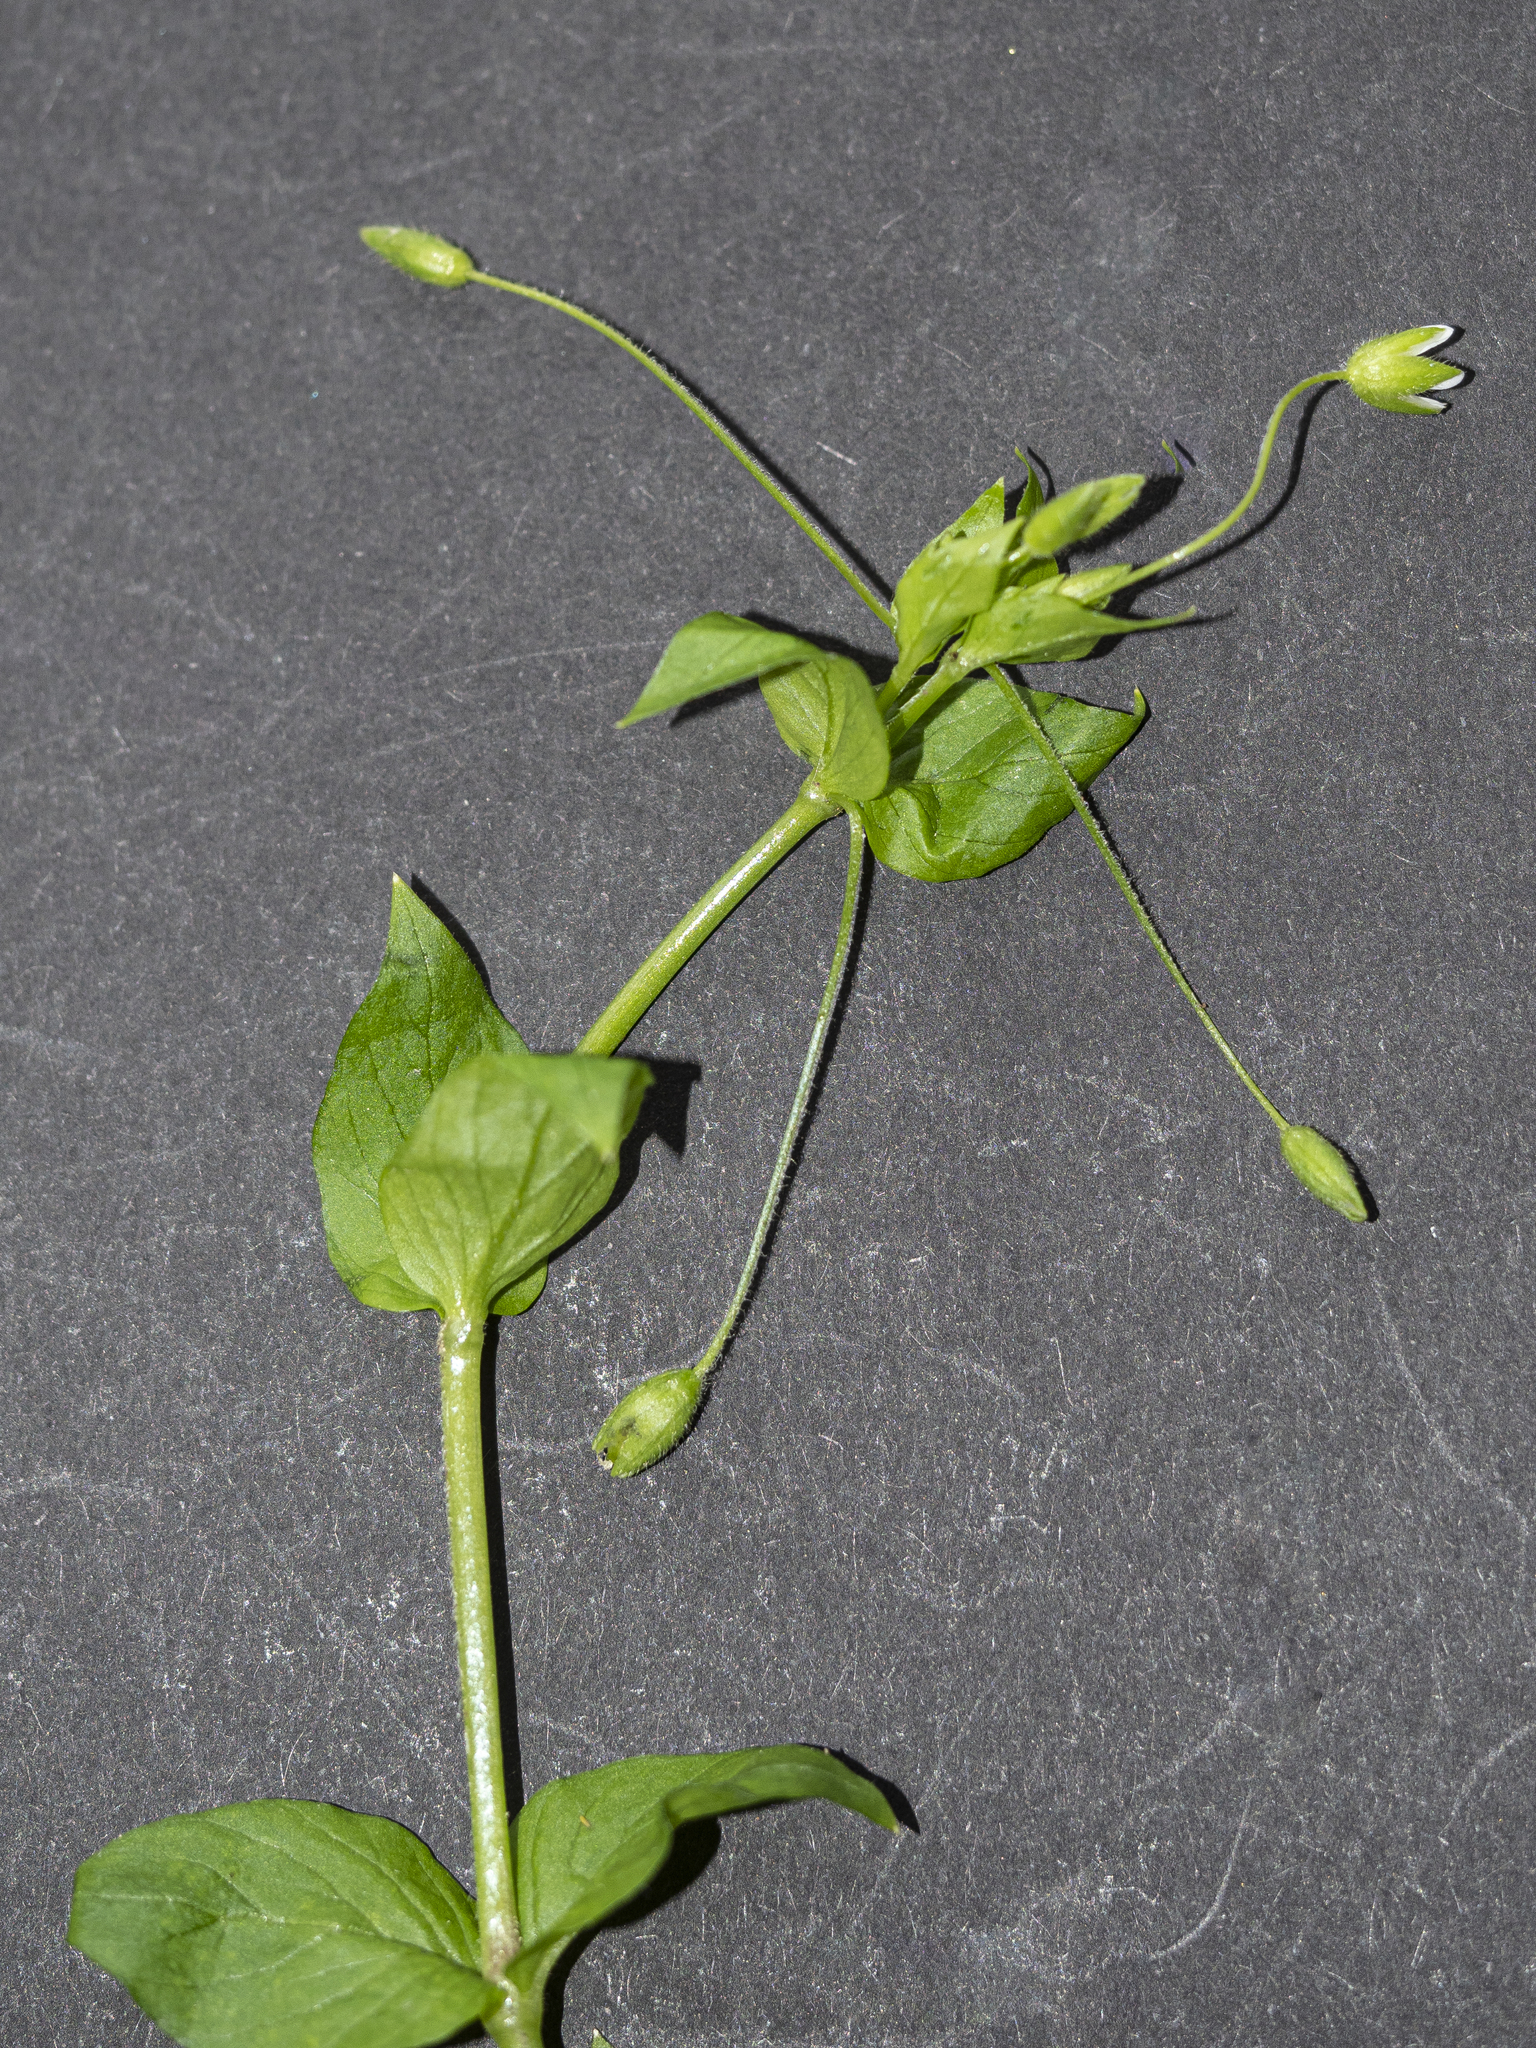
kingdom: Plantae
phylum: Tracheophyta
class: Magnoliopsida
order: Caryophyllales
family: Caryophyllaceae
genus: Stellaria
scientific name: Stellaria ruderalis
